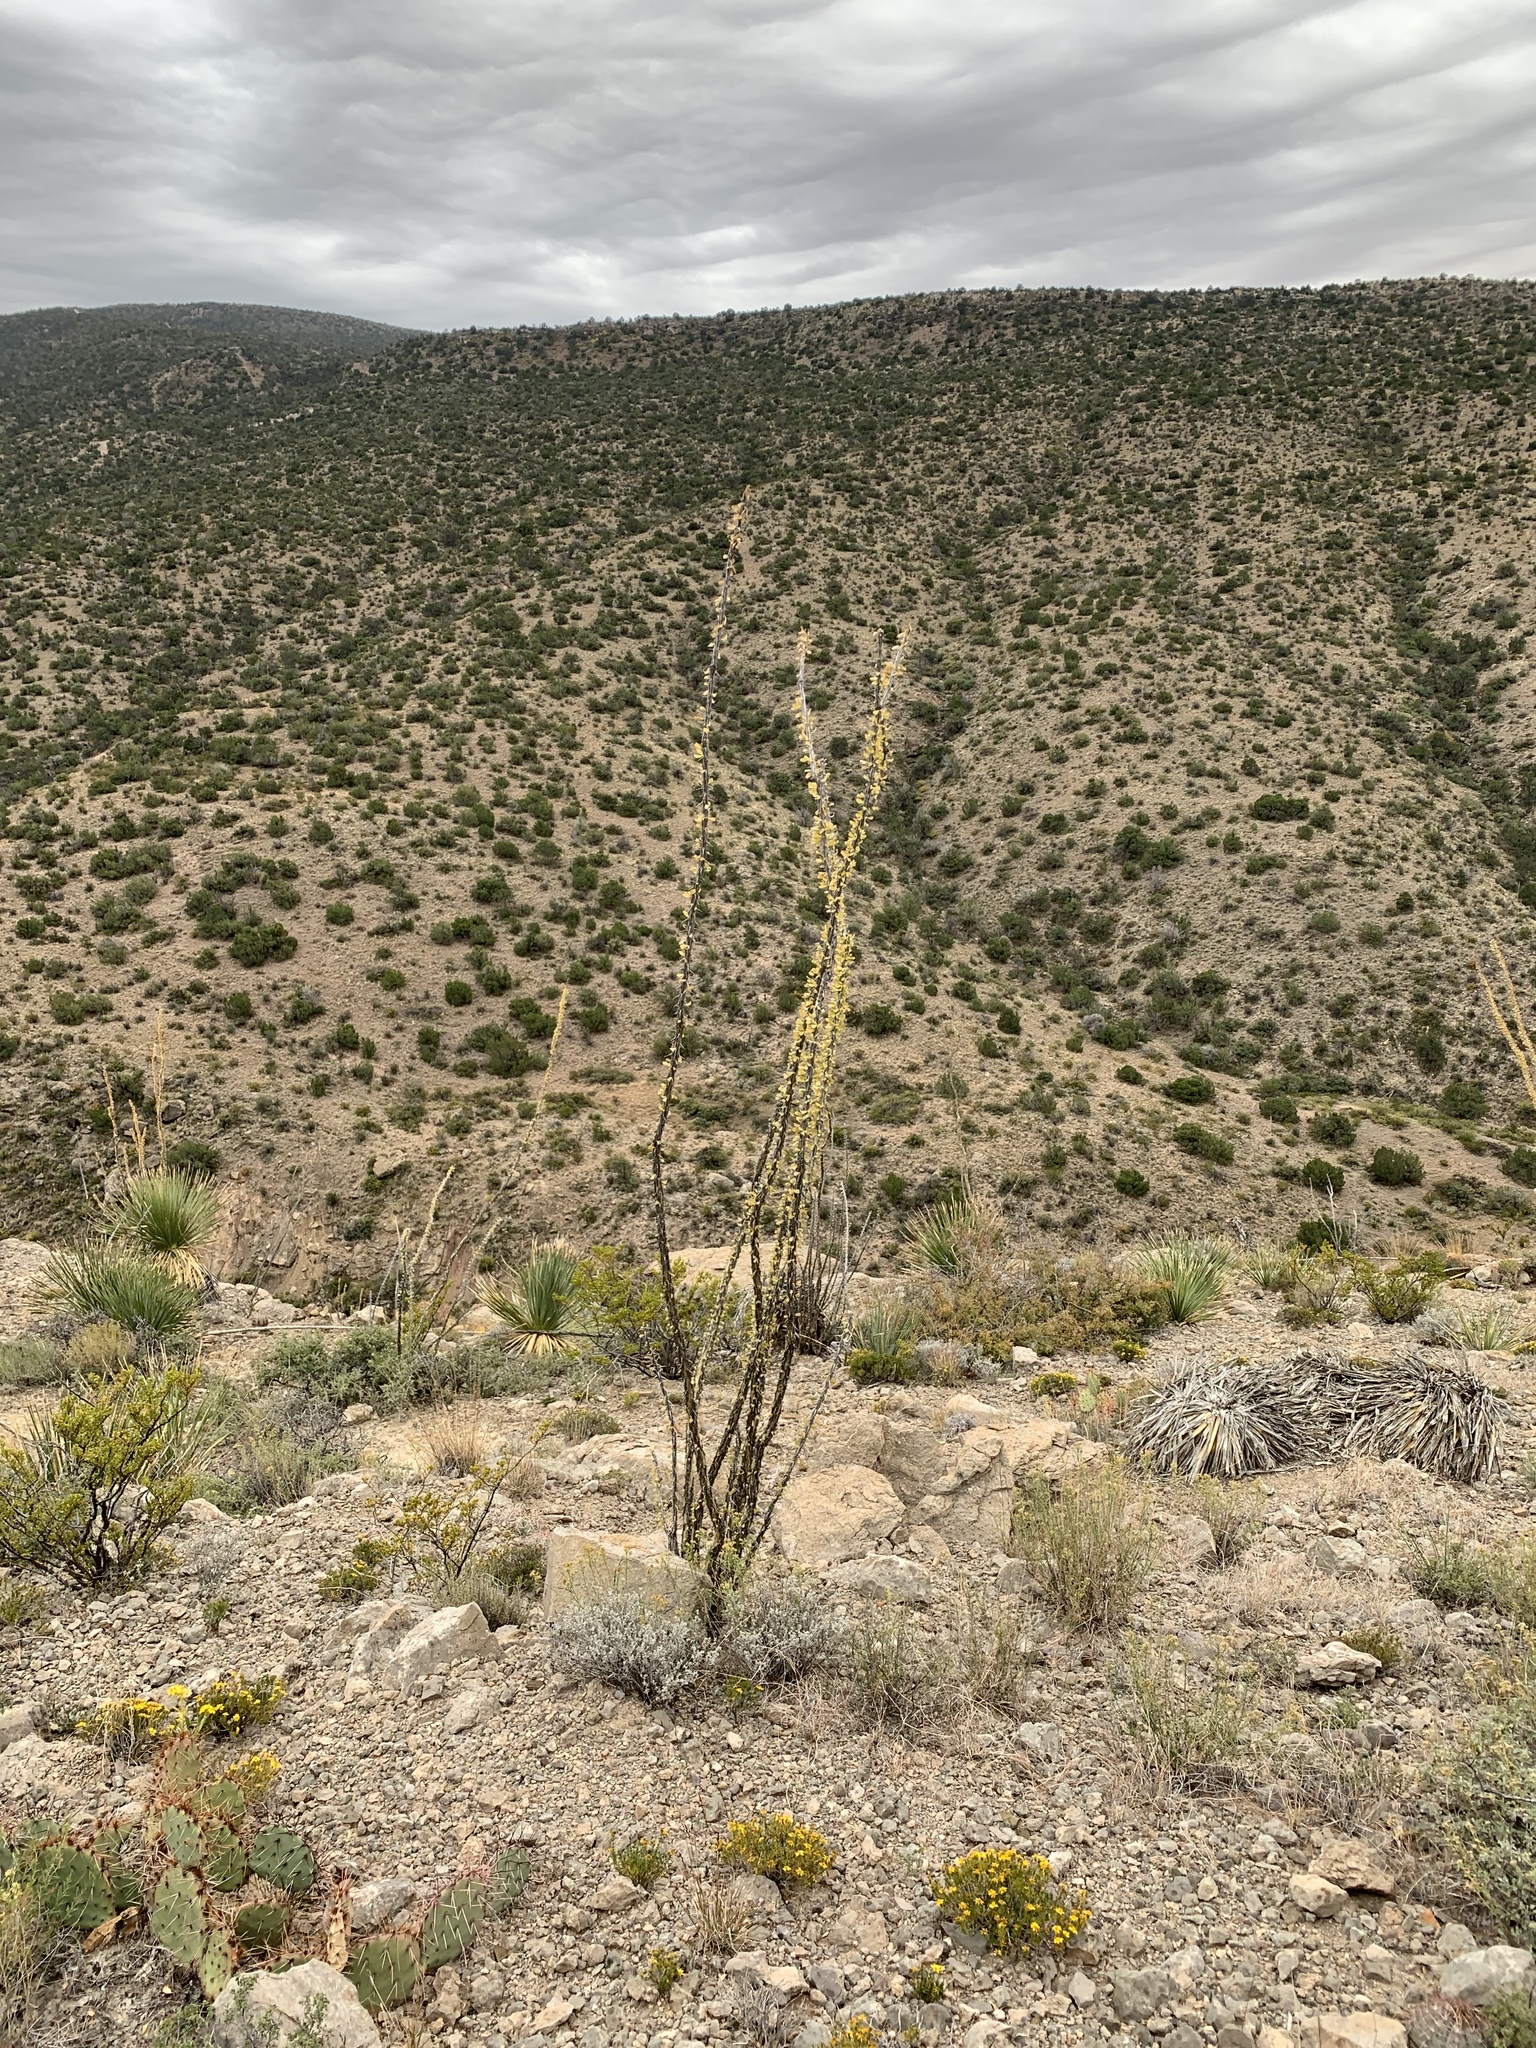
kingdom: Plantae
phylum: Tracheophyta
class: Magnoliopsida
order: Ericales
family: Fouquieriaceae
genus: Fouquieria
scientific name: Fouquieria splendens
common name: Vine-cactus
